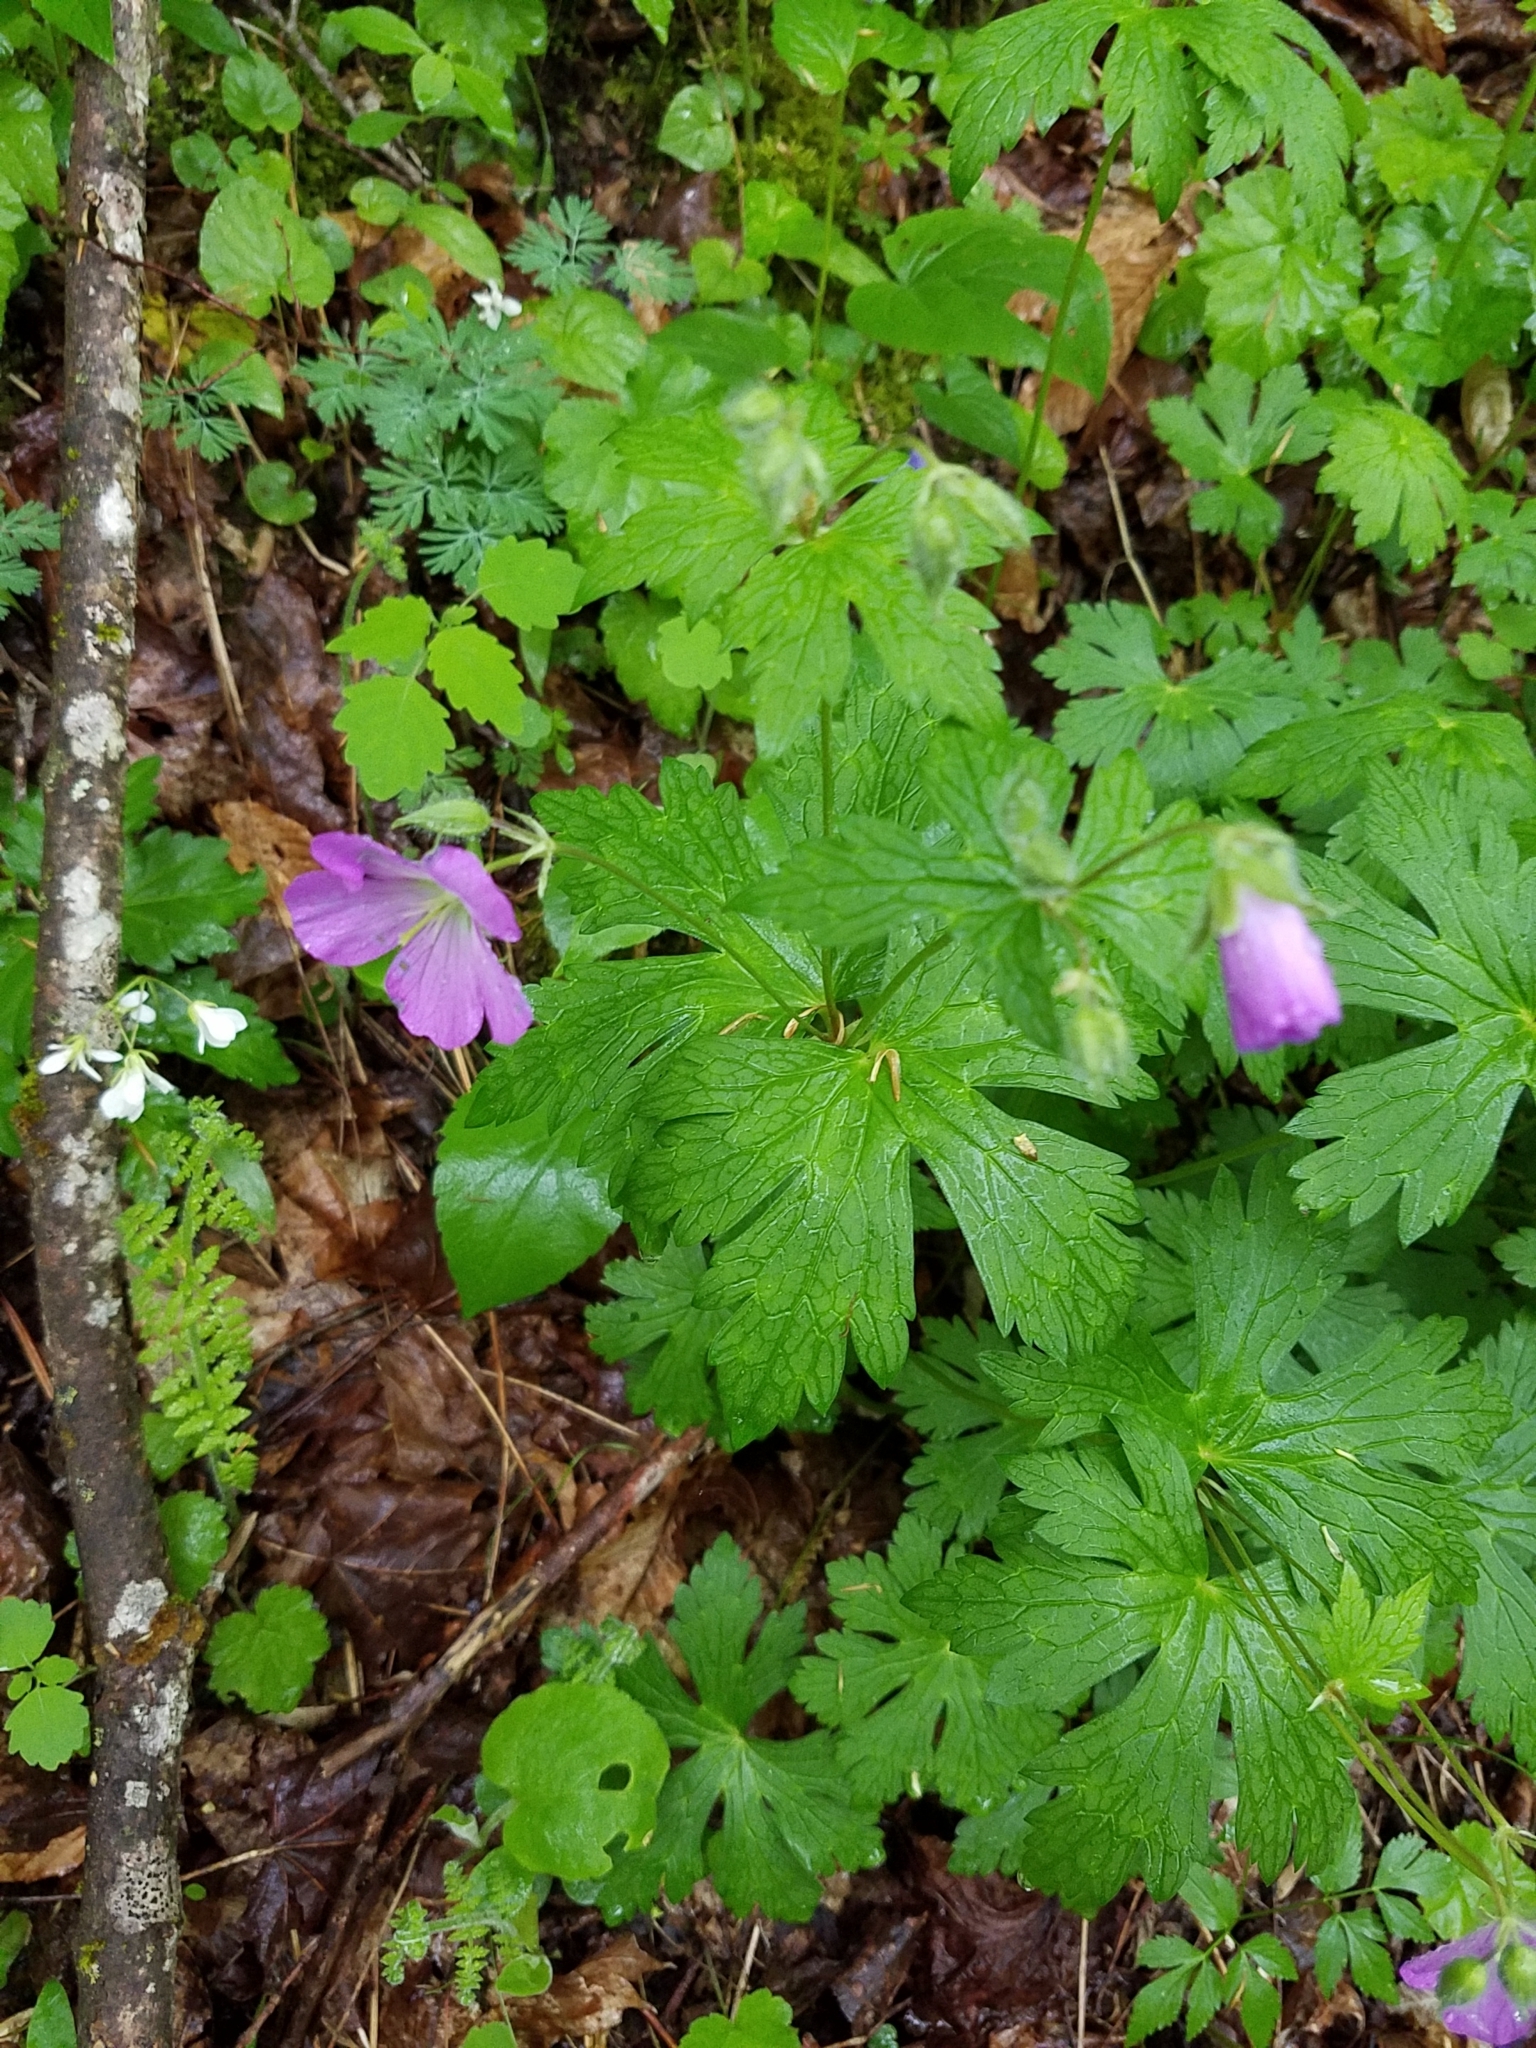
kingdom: Plantae
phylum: Tracheophyta
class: Magnoliopsida
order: Brassicales
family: Brassicaceae
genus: Cardamine
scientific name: Cardamine diphylla
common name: Broad-leaved toothwort
